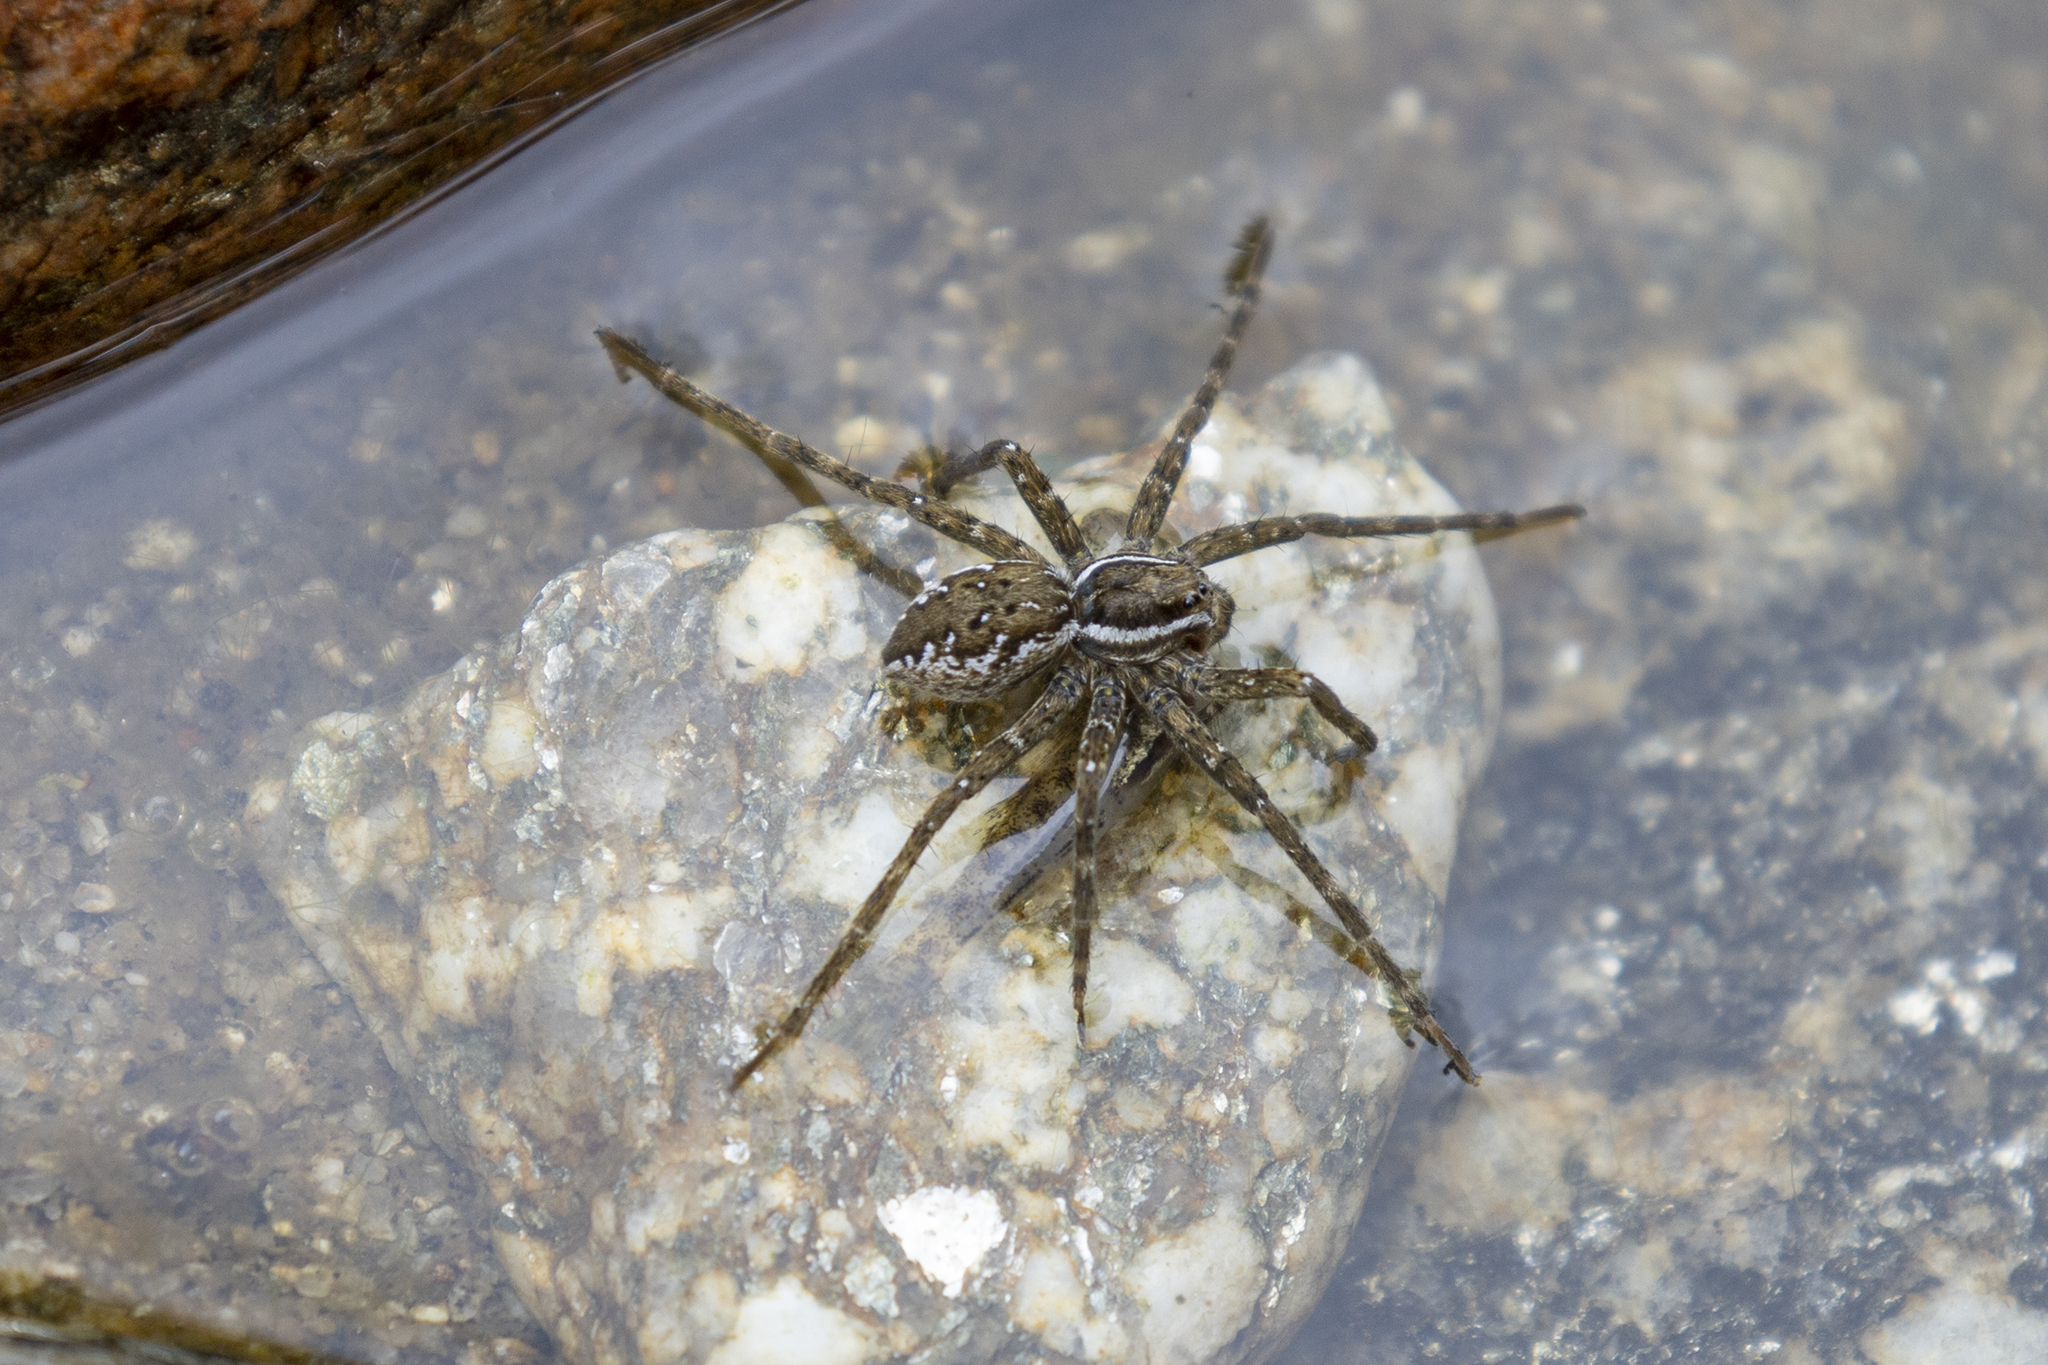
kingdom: Animalia
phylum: Arthropoda
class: Arachnida
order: Araneae
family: Pisauridae
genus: Dolomedes
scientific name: Dolomedes dondalei
